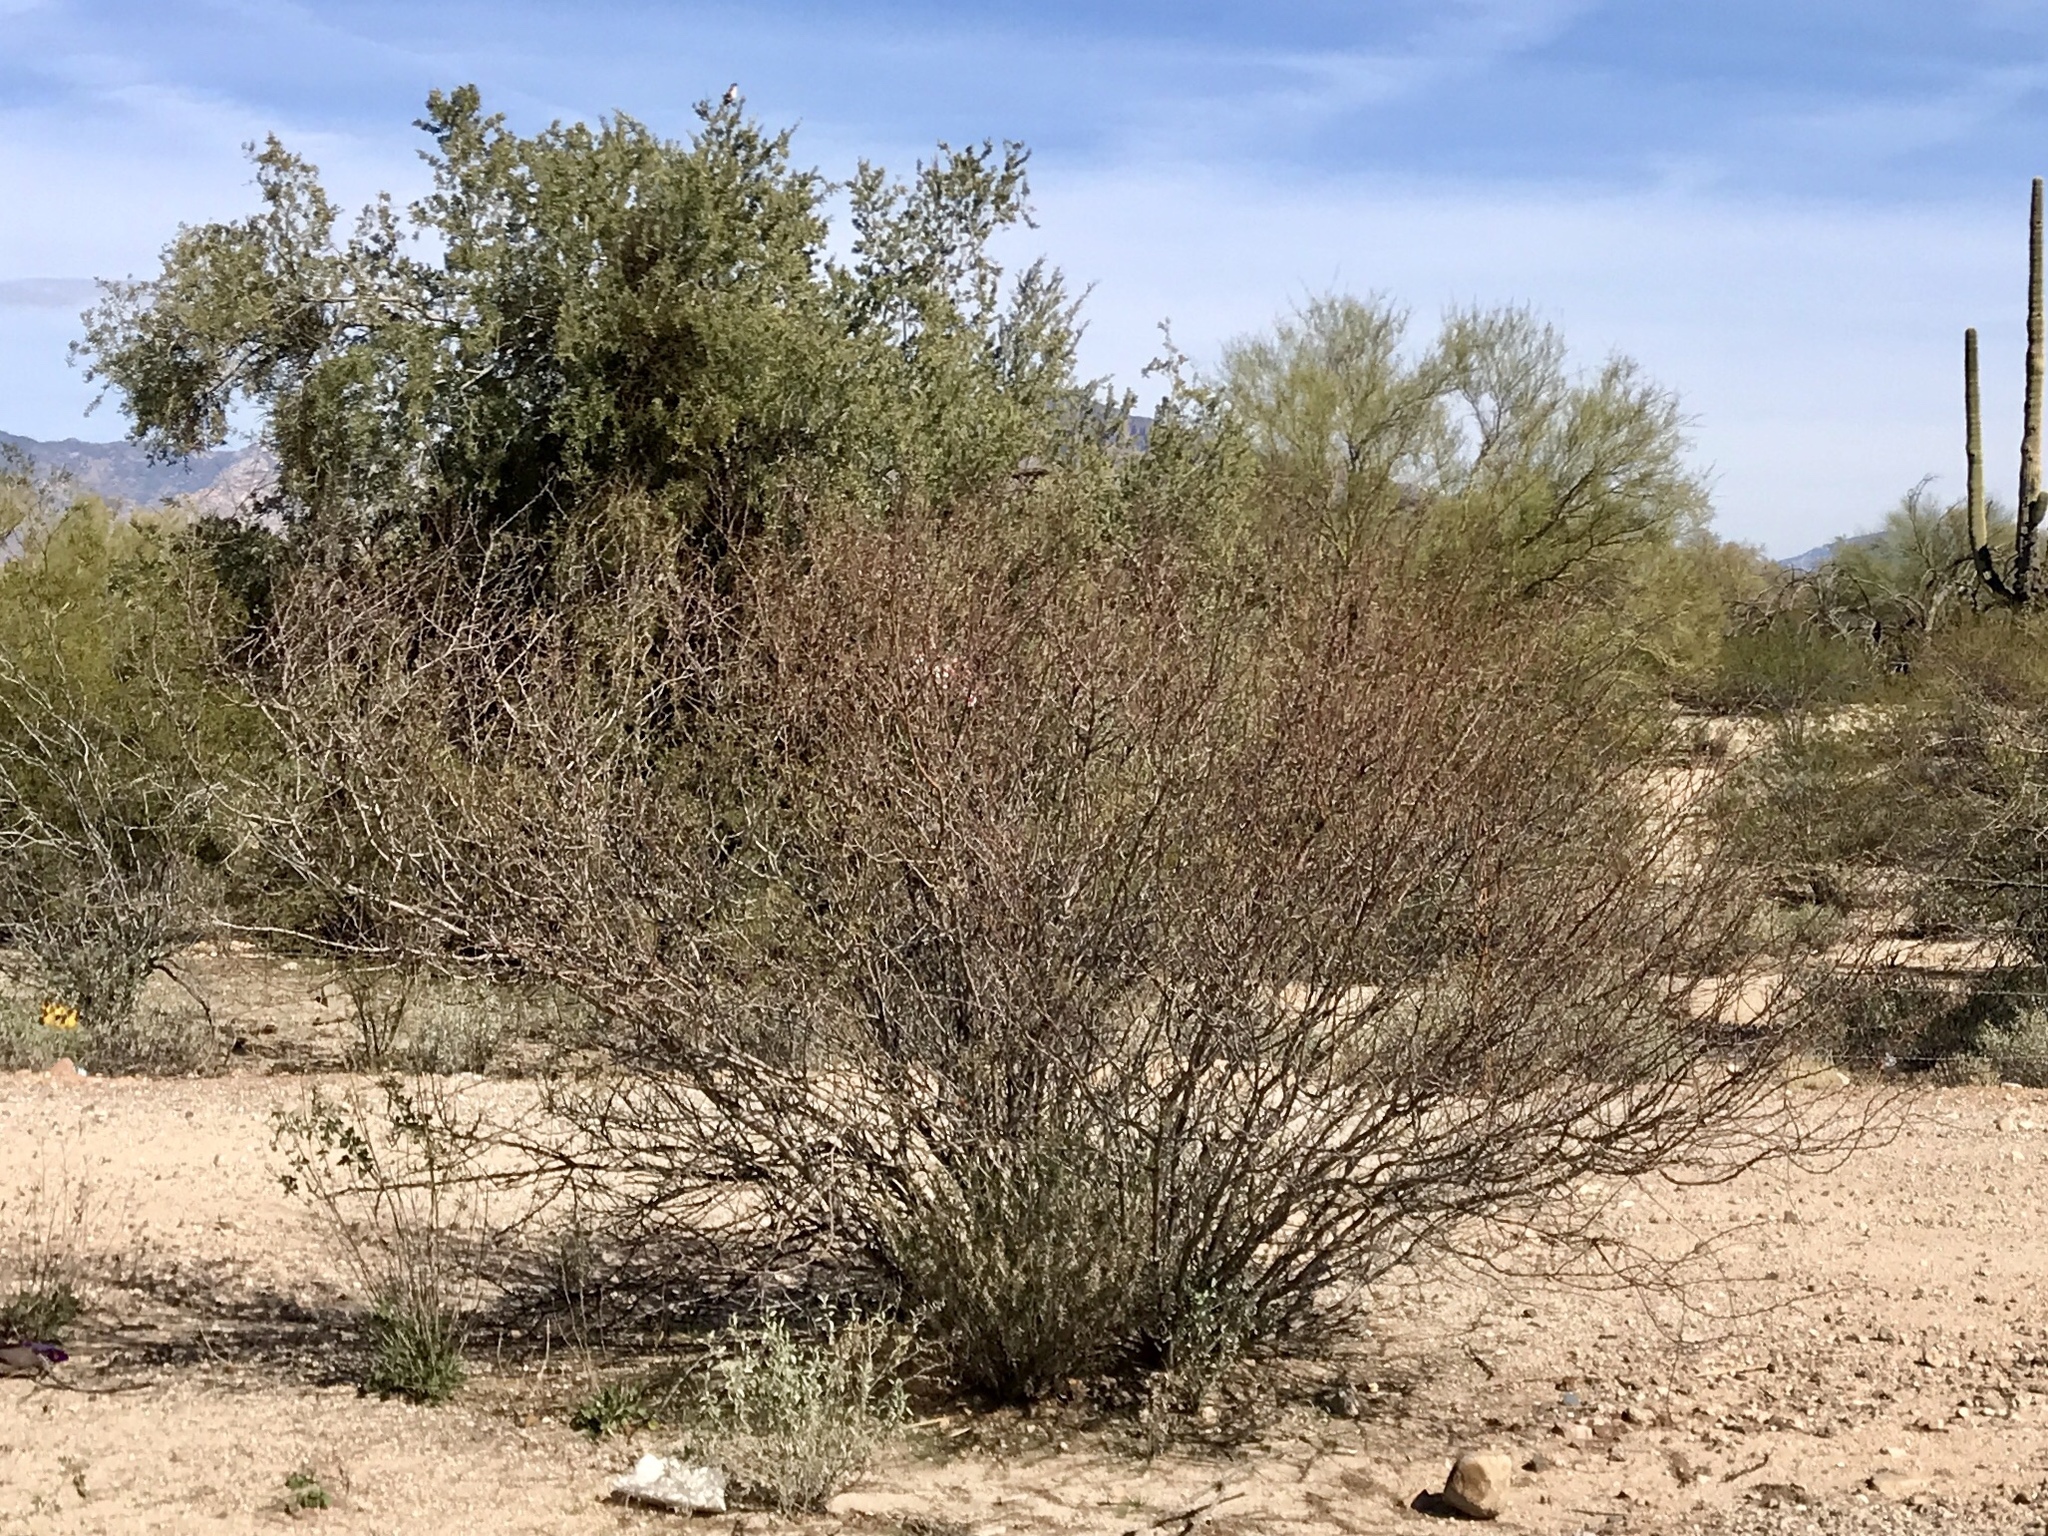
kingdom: Plantae
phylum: Tracheophyta
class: Magnoliopsida
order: Fabales
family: Fabaceae
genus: Vachellia
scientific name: Vachellia constricta
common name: Mescat acacia
